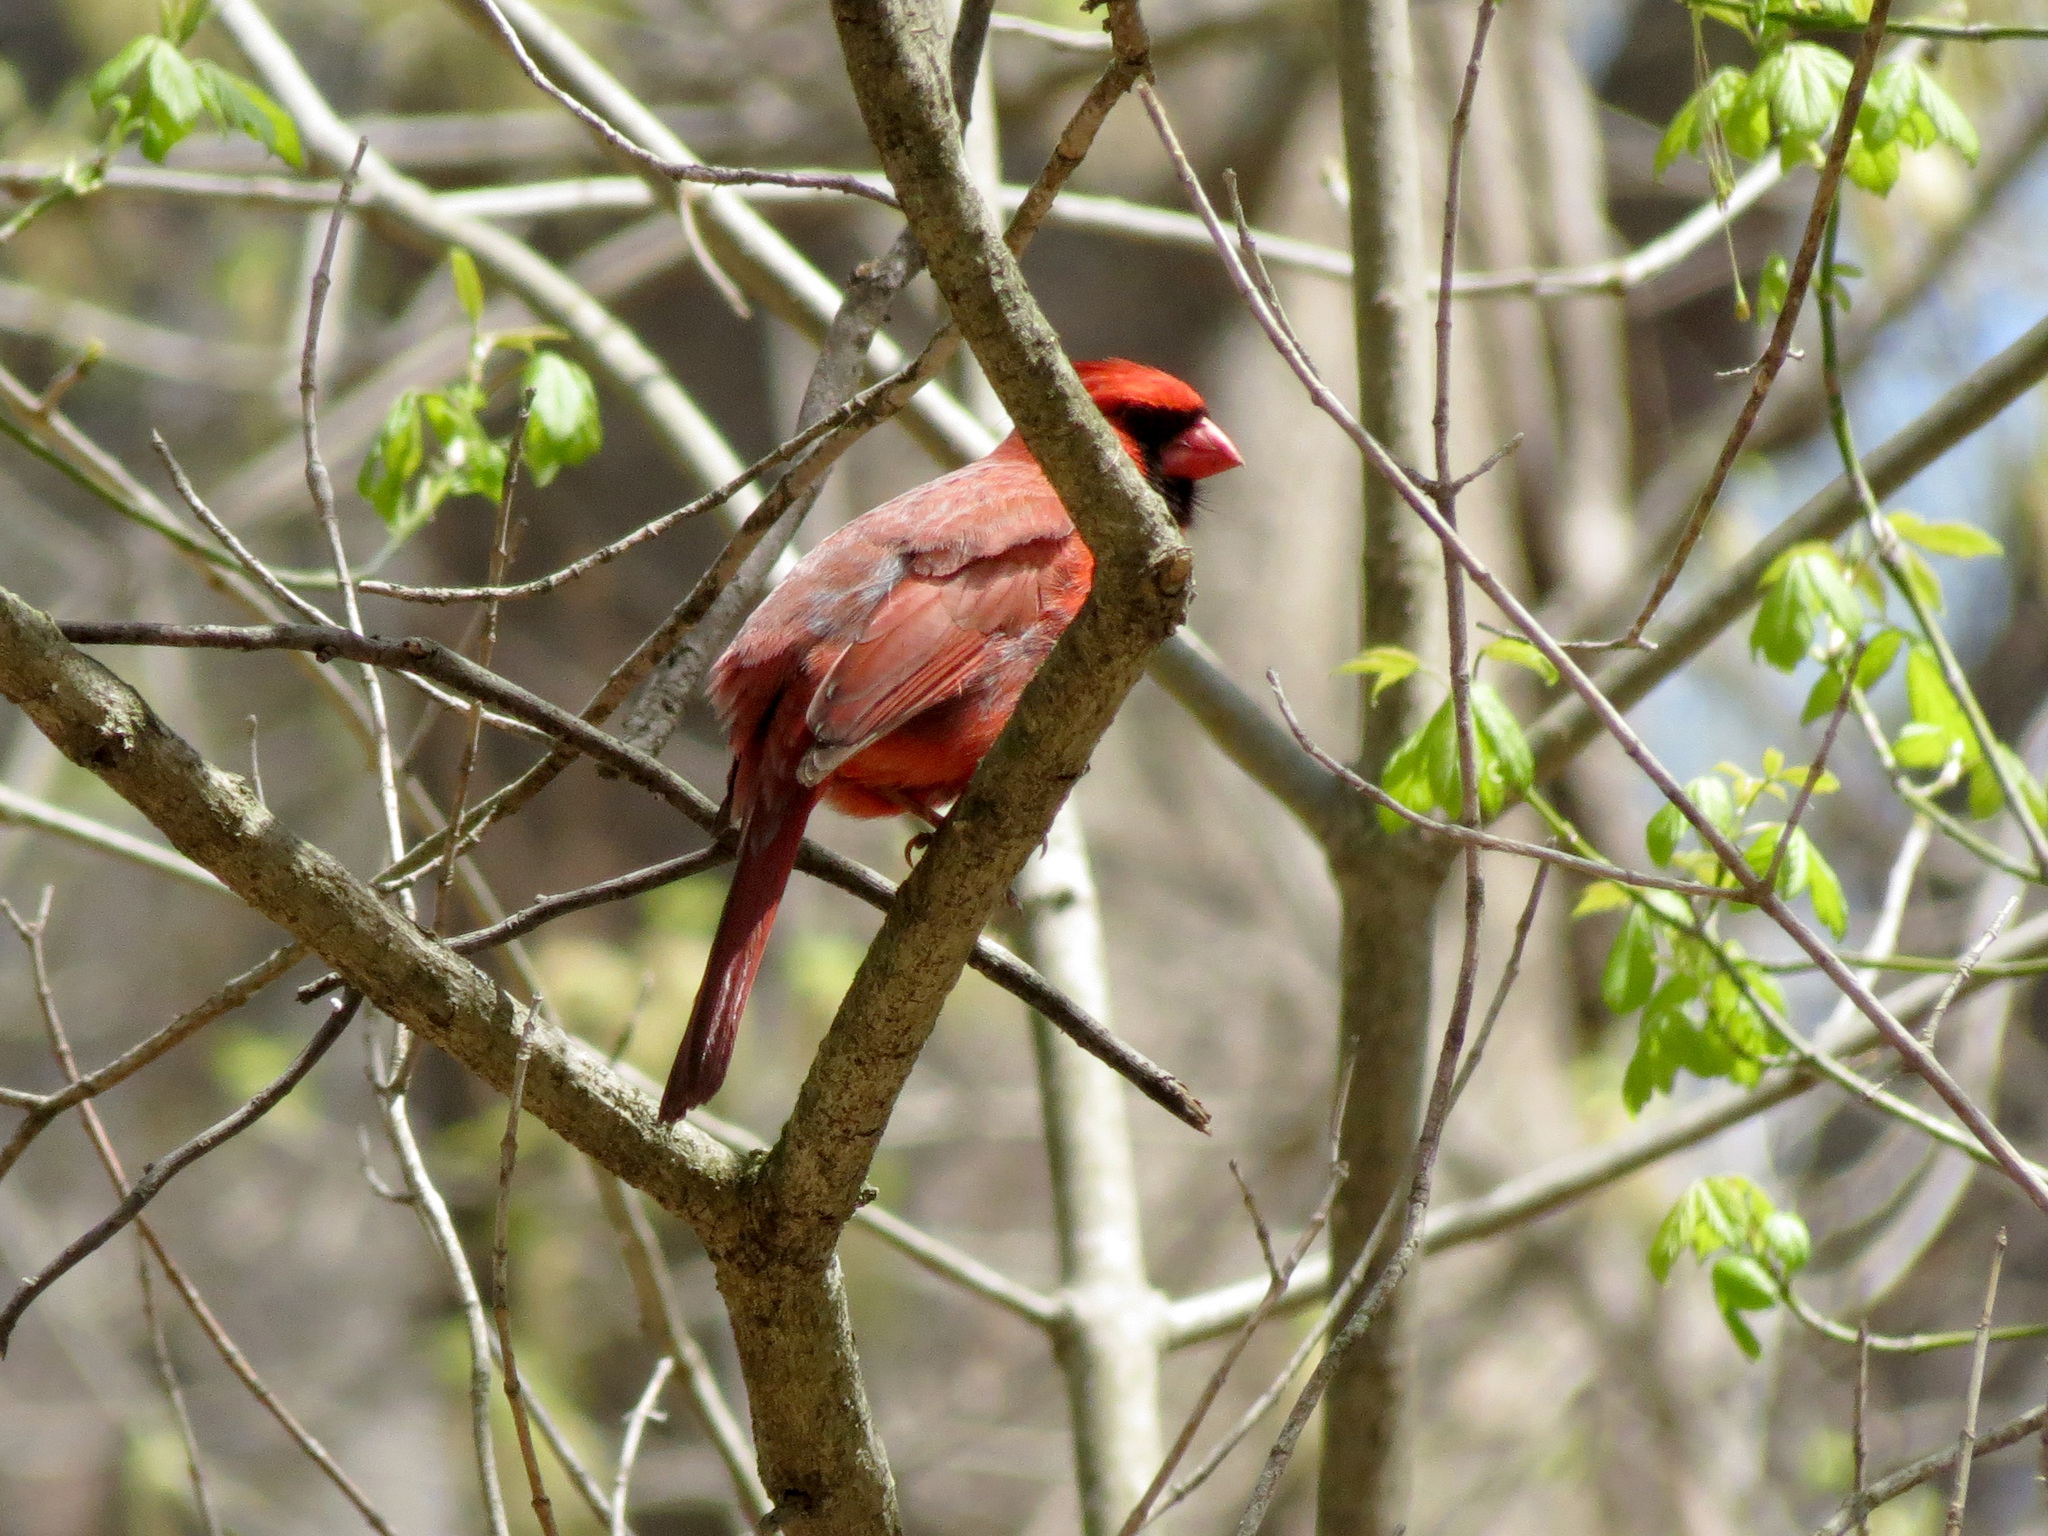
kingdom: Animalia
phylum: Chordata
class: Aves
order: Passeriformes
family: Cardinalidae
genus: Cardinalis
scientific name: Cardinalis cardinalis
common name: Northern cardinal
